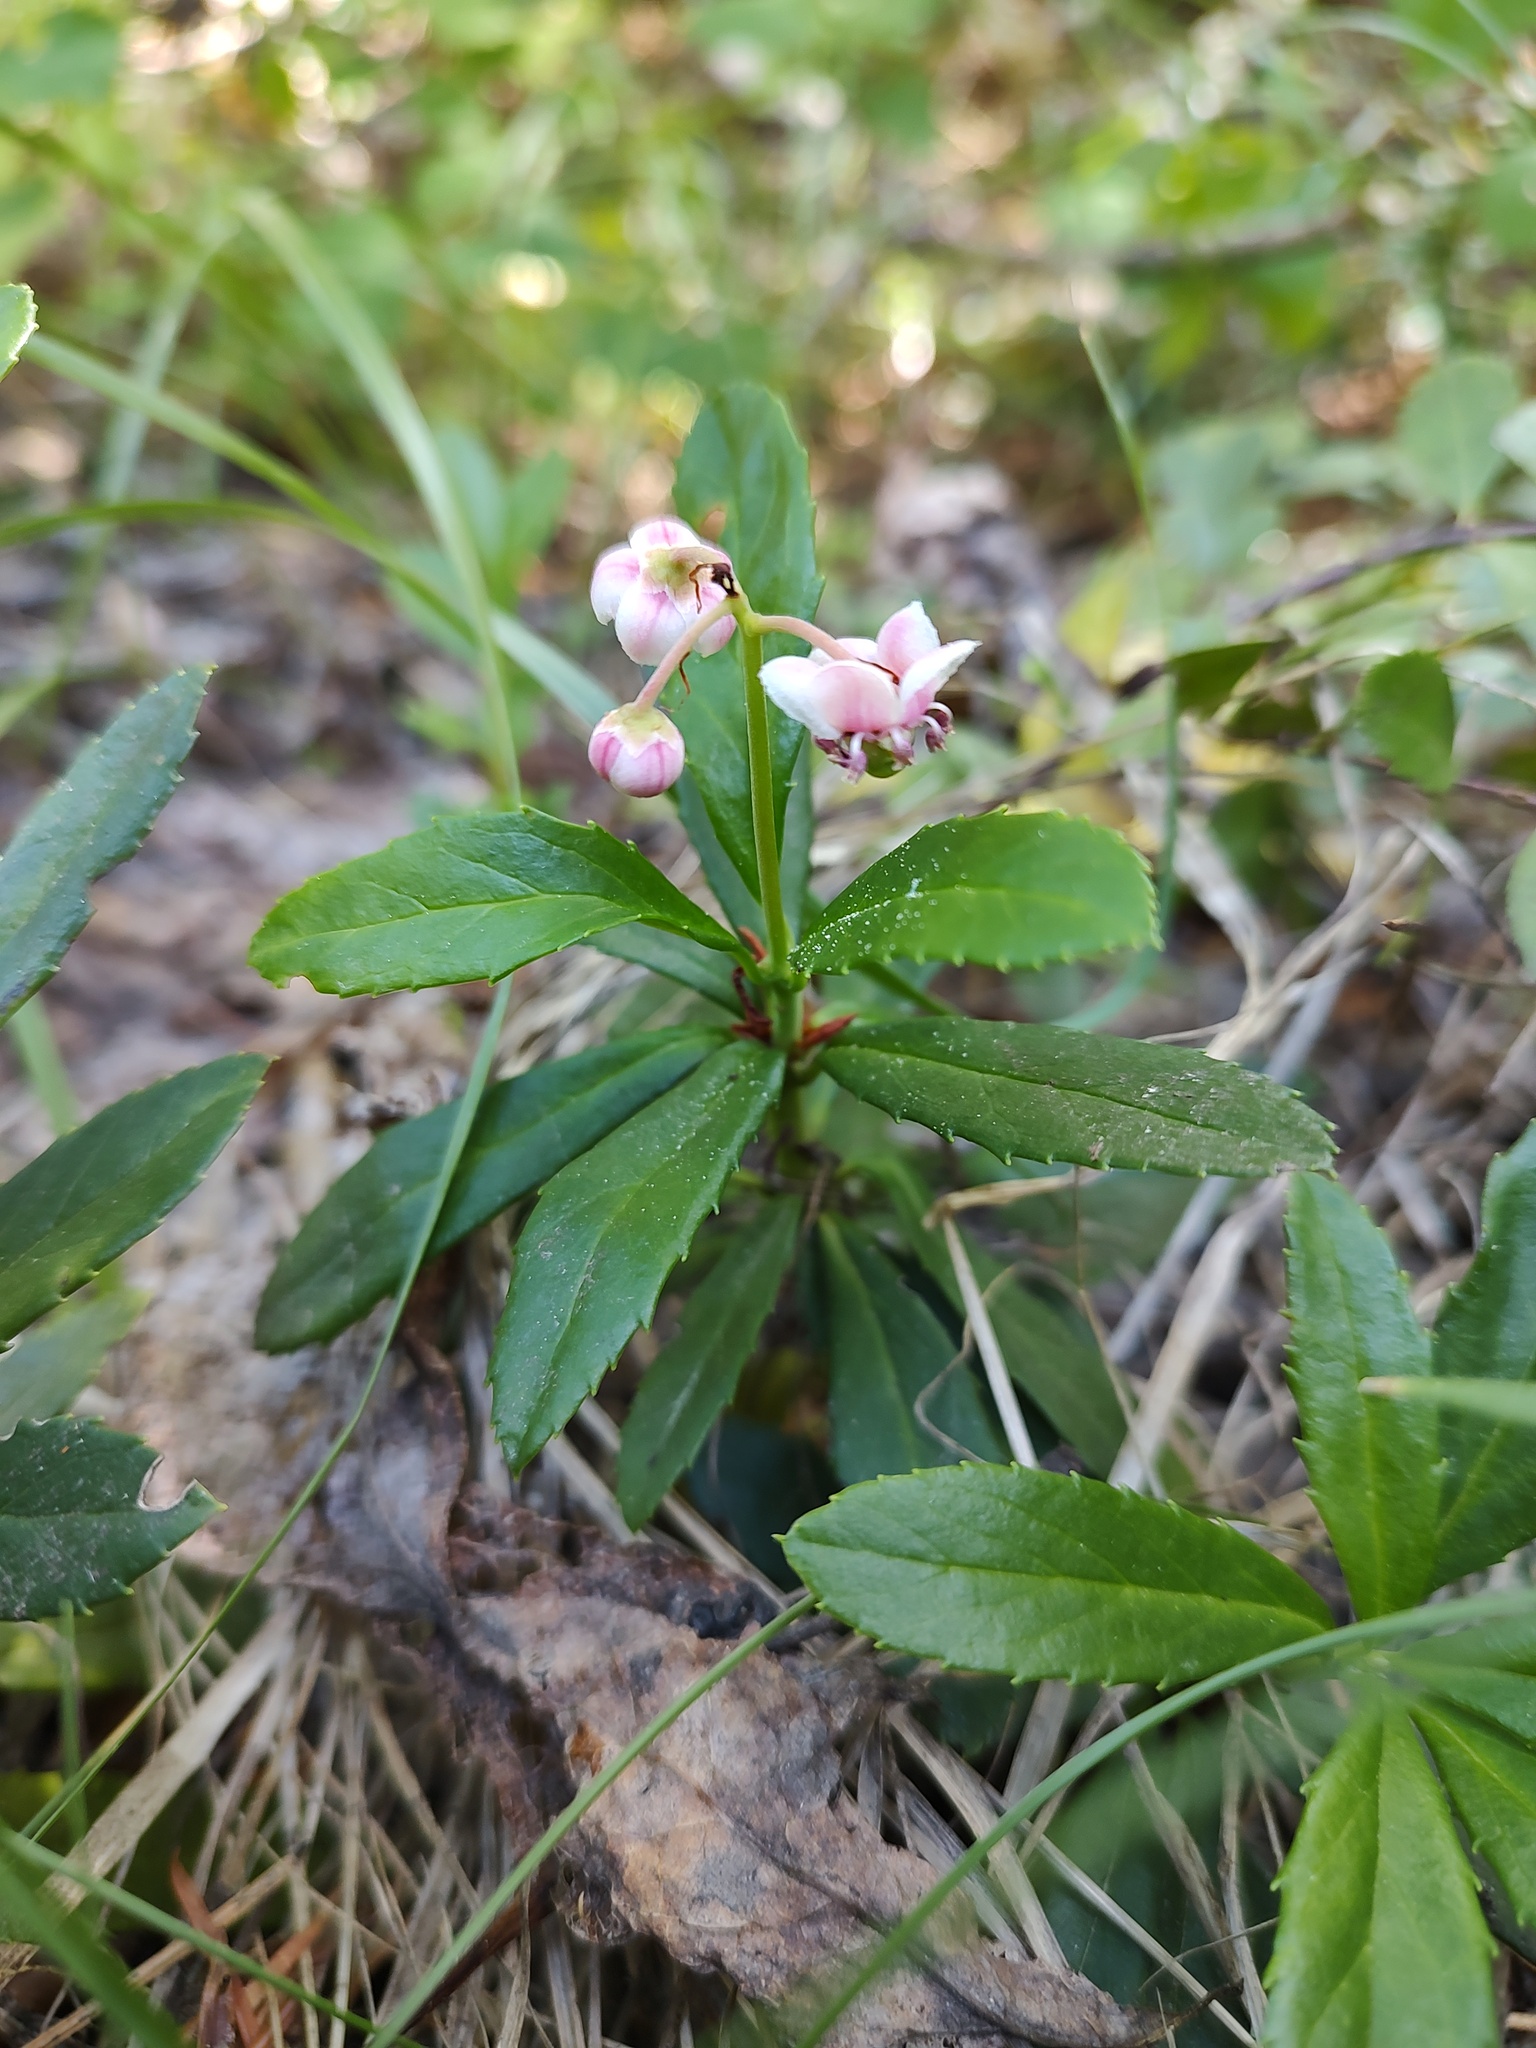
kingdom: Plantae
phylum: Tracheophyta
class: Magnoliopsida
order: Ericales
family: Ericaceae
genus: Chimaphila
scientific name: Chimaphila umbellata
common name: Pipsissewa
